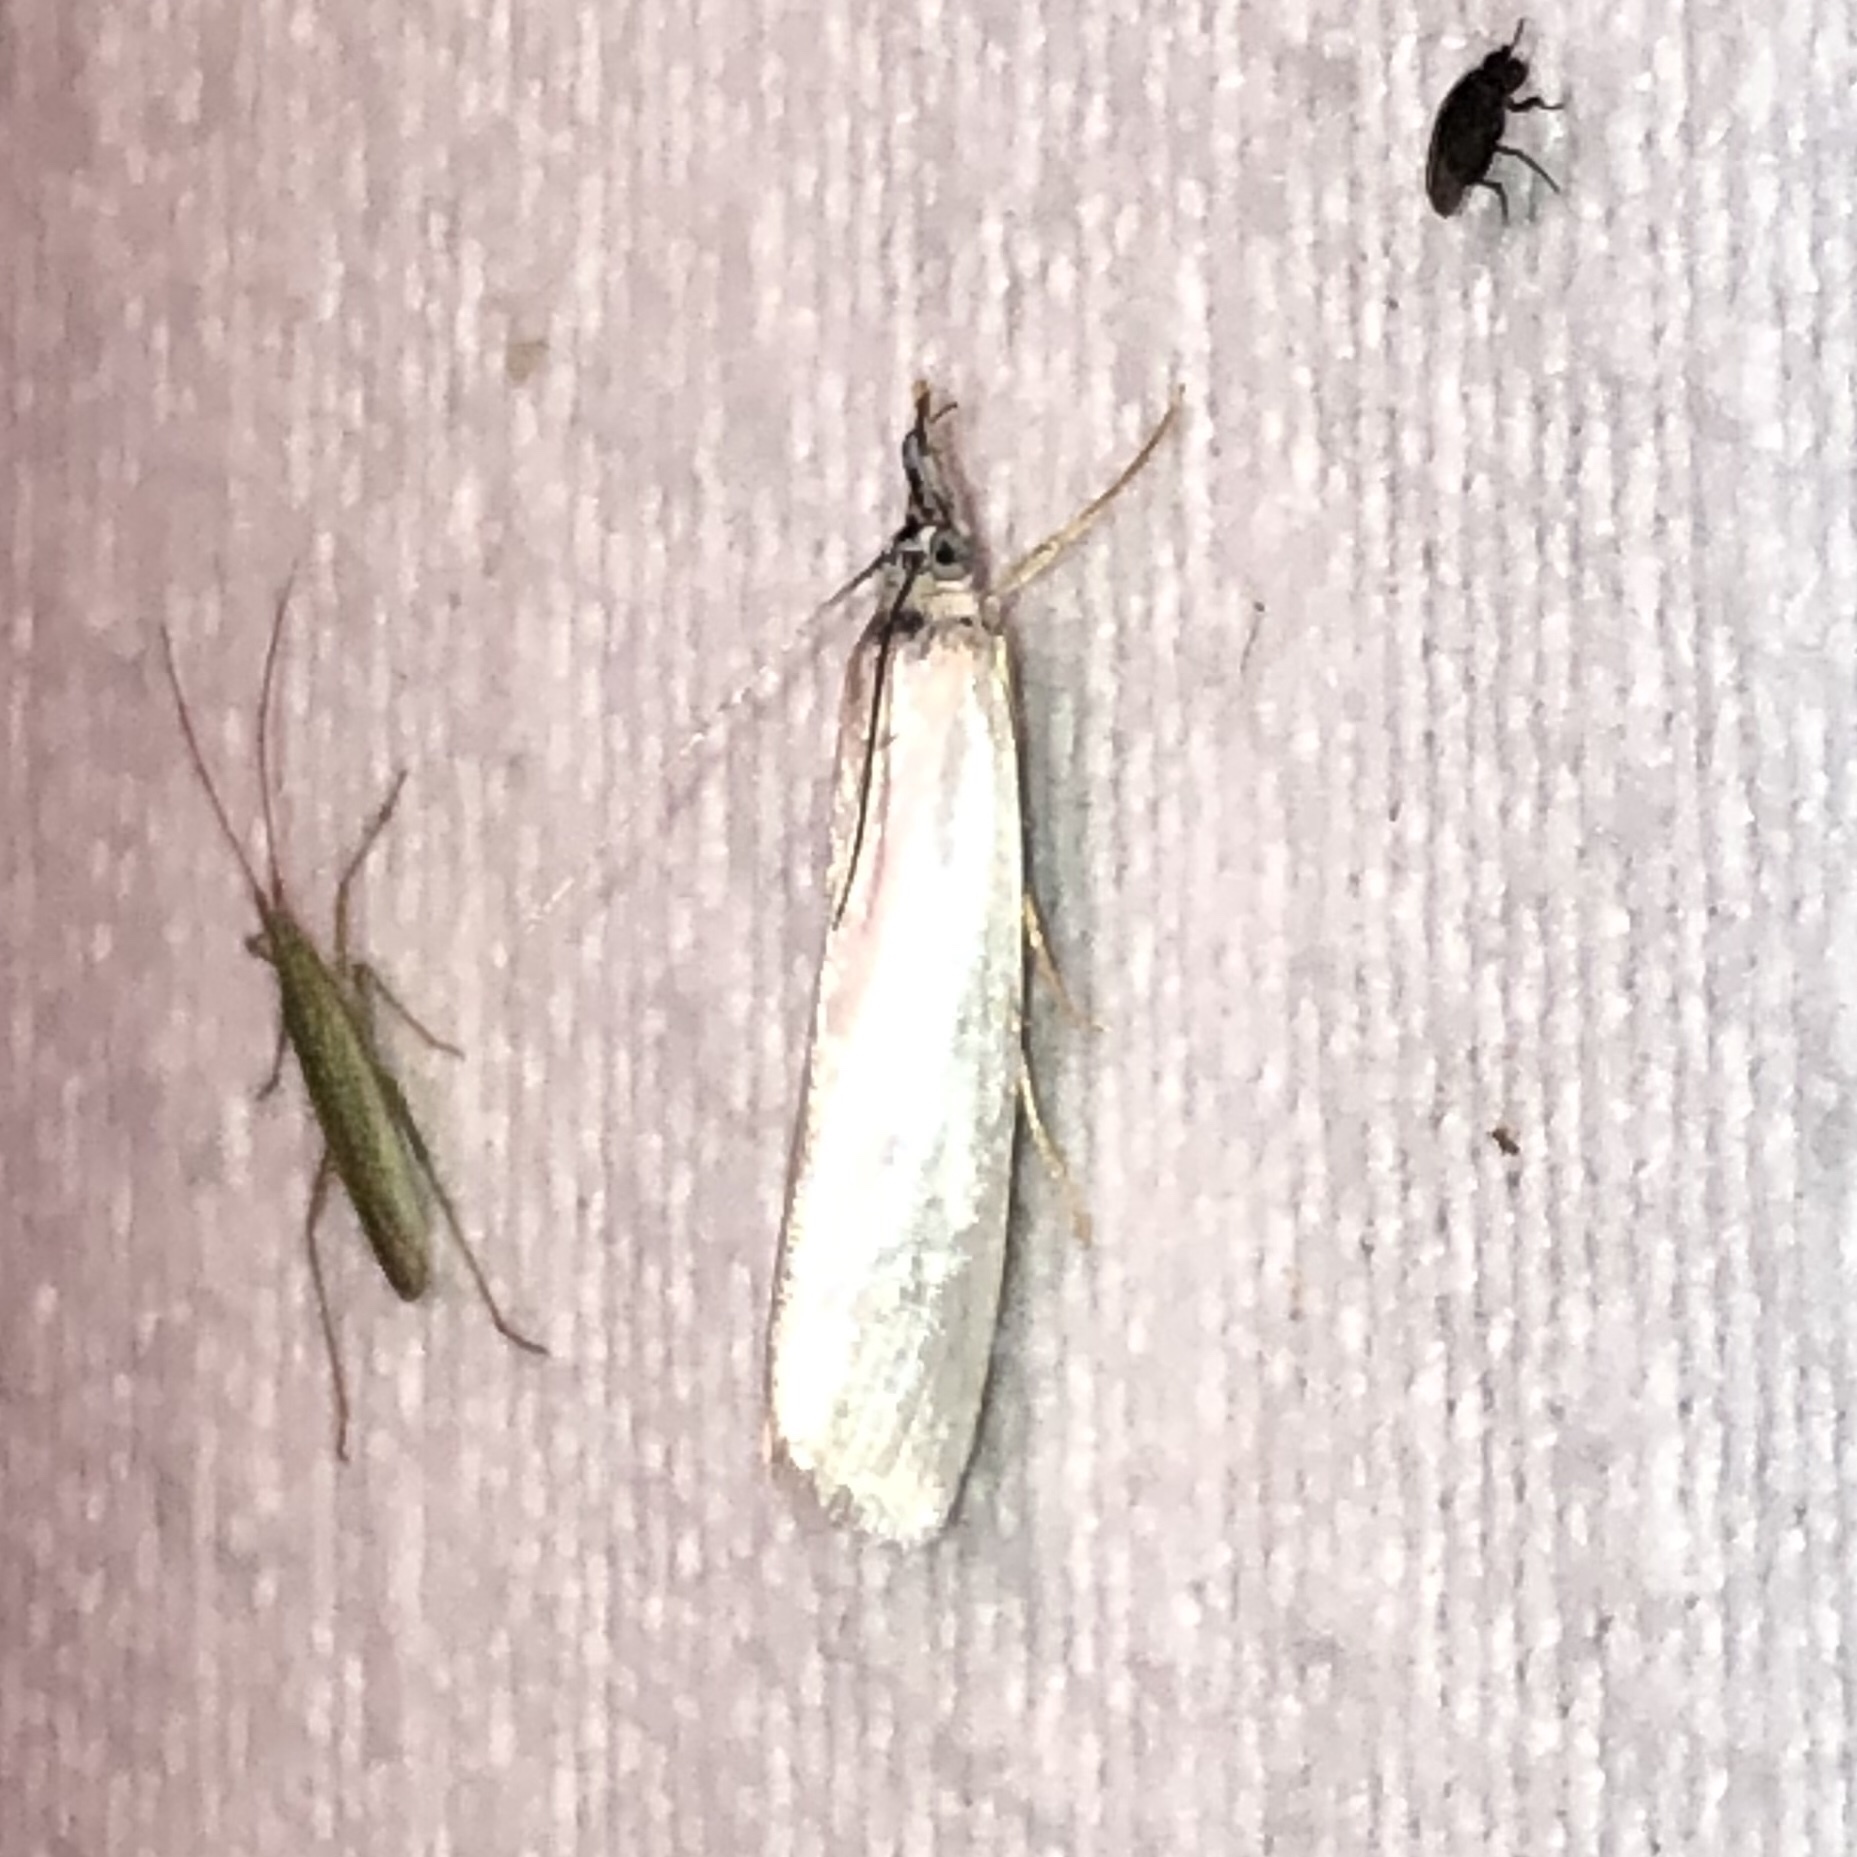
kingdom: Animalia
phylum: Arthropoda
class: Insecta
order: Lepidoptera
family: Crambidae
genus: Crambus
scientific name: Crambus perlellus
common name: Yellow satin veneer
